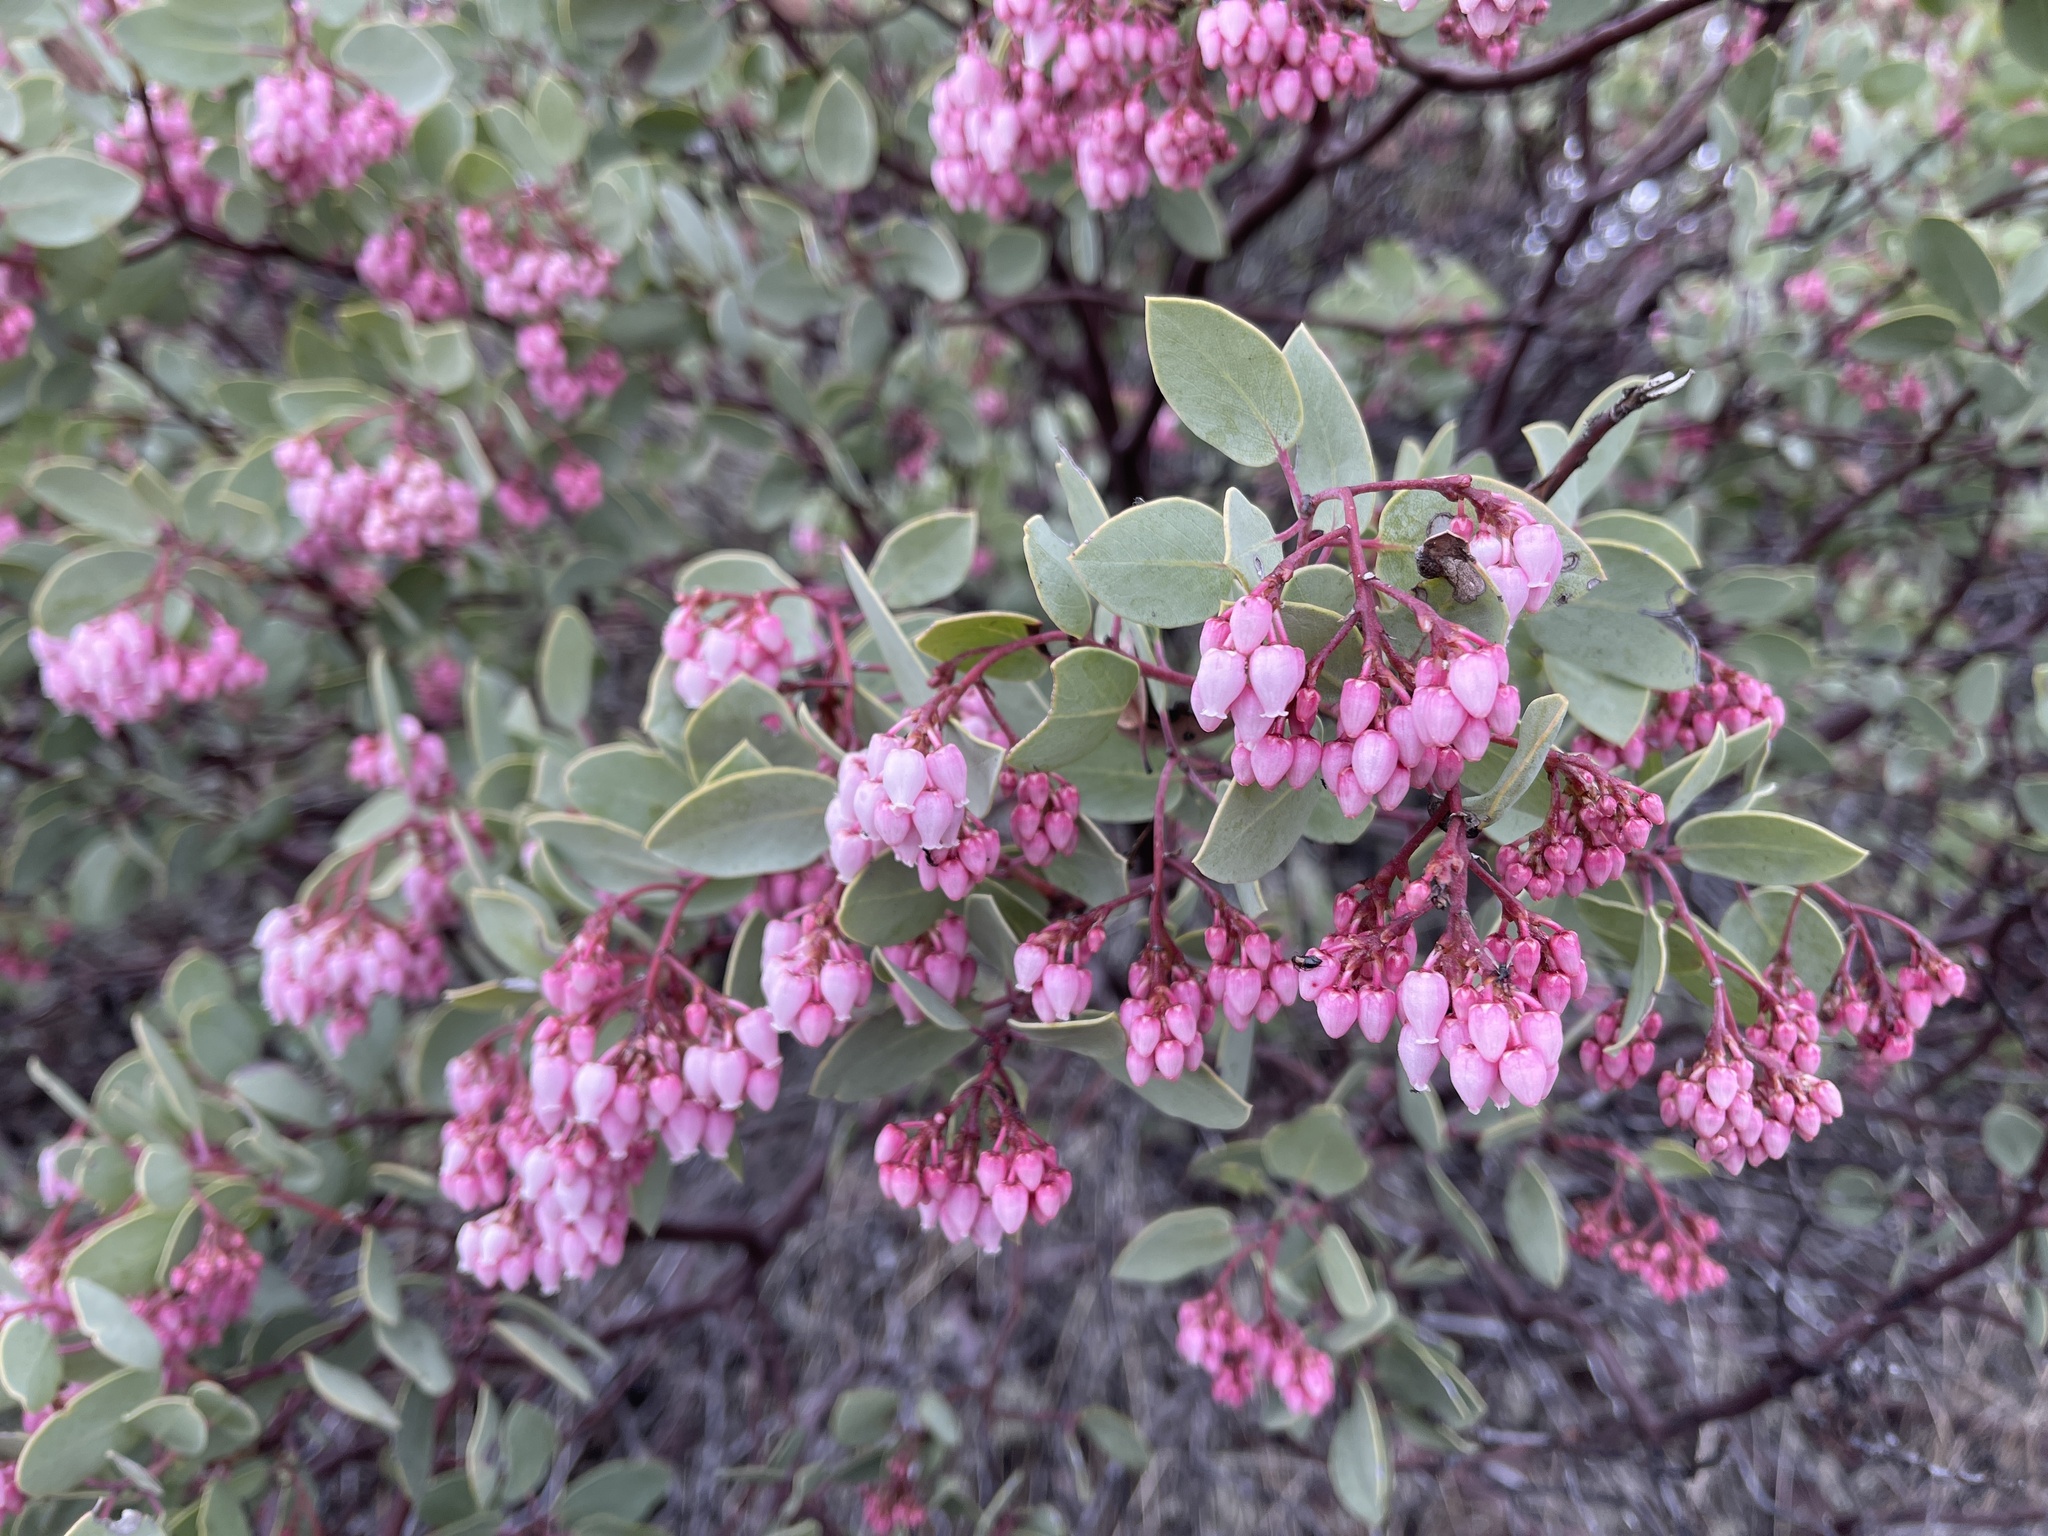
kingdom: Plantae
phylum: Tracheophyta
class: Magnoliopsida
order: Ericales
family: Ericaceae
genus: Arctostaphylos
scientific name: Arctostaphylos viscida
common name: White-leaf manzanita
